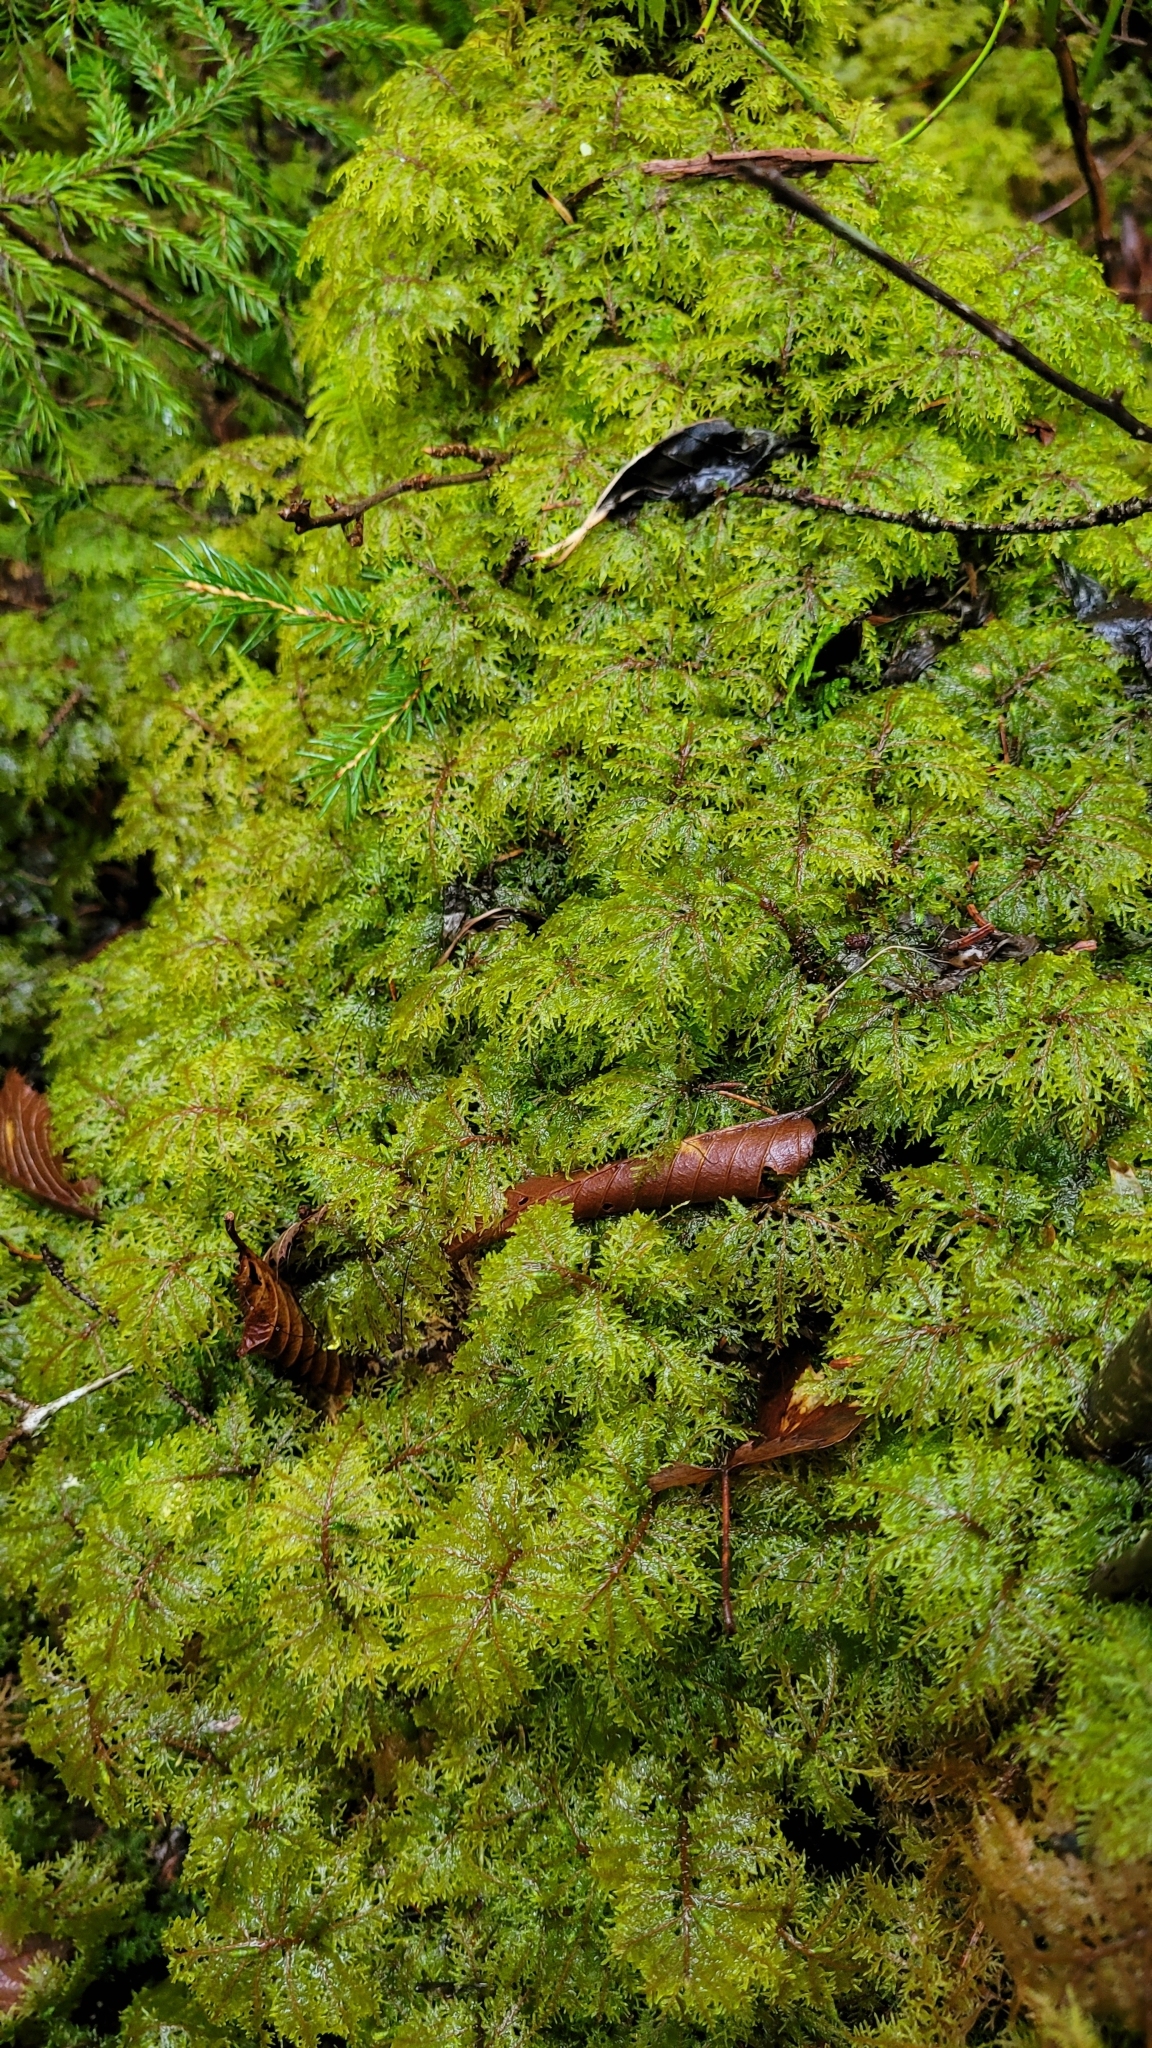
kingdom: Plantae
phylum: Bryophyta
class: Bryopsida
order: Hypnales
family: Hylocomiaceae
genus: Hylocomium
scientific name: Hylocomium splendens
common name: Stairstep moss
